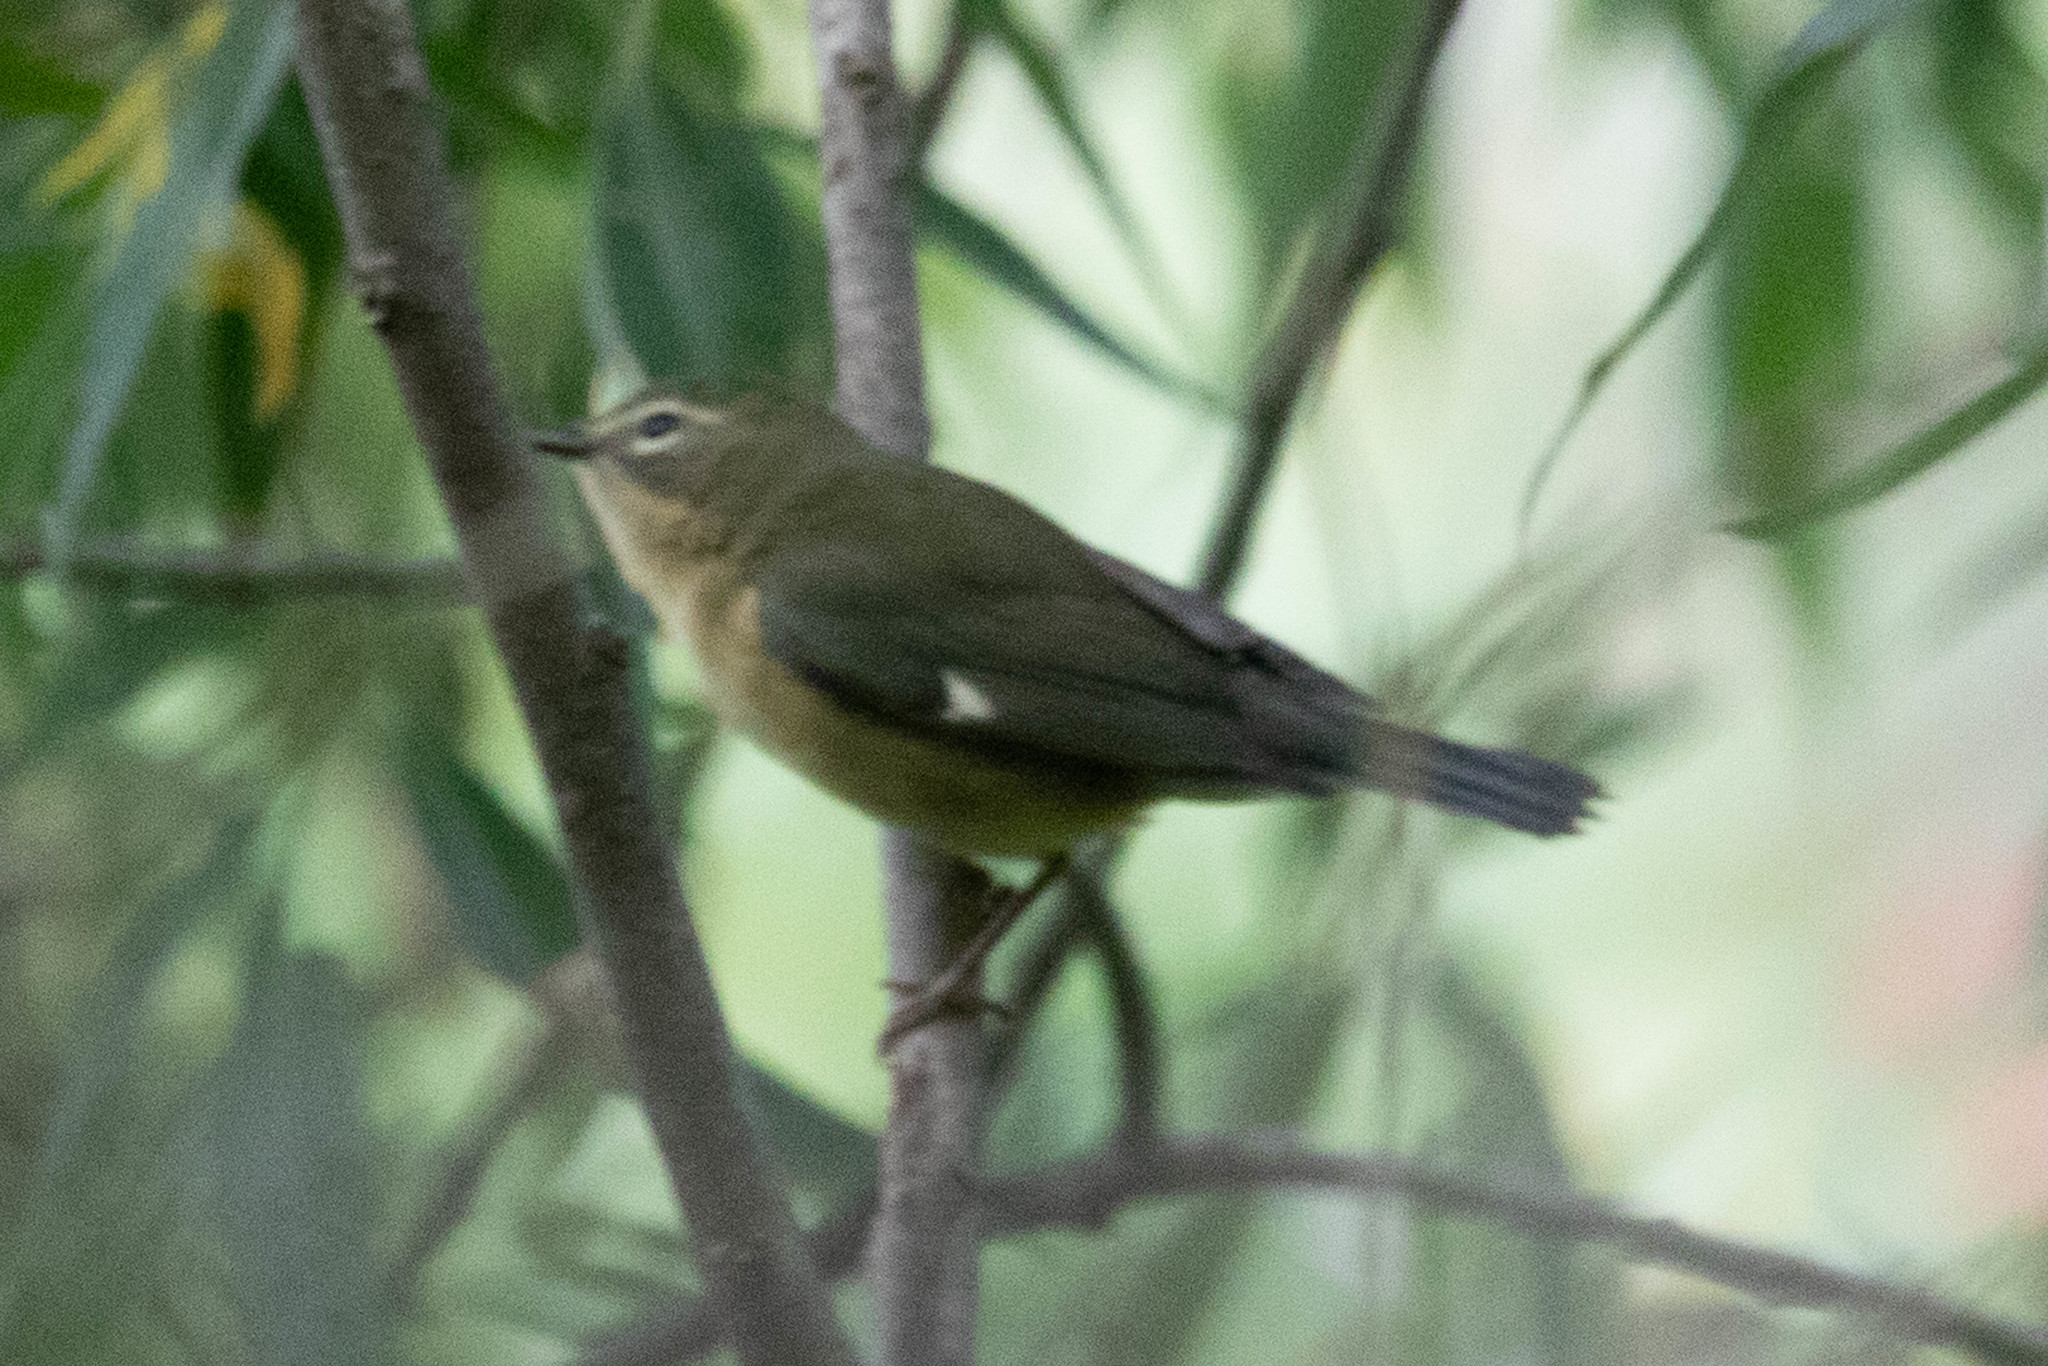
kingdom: Animalia
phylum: Chordata
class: Aves
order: Passeriformes
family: Parulidae
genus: Setophaga
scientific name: Setophaga caerulescens
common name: Black-throated blue warbler
